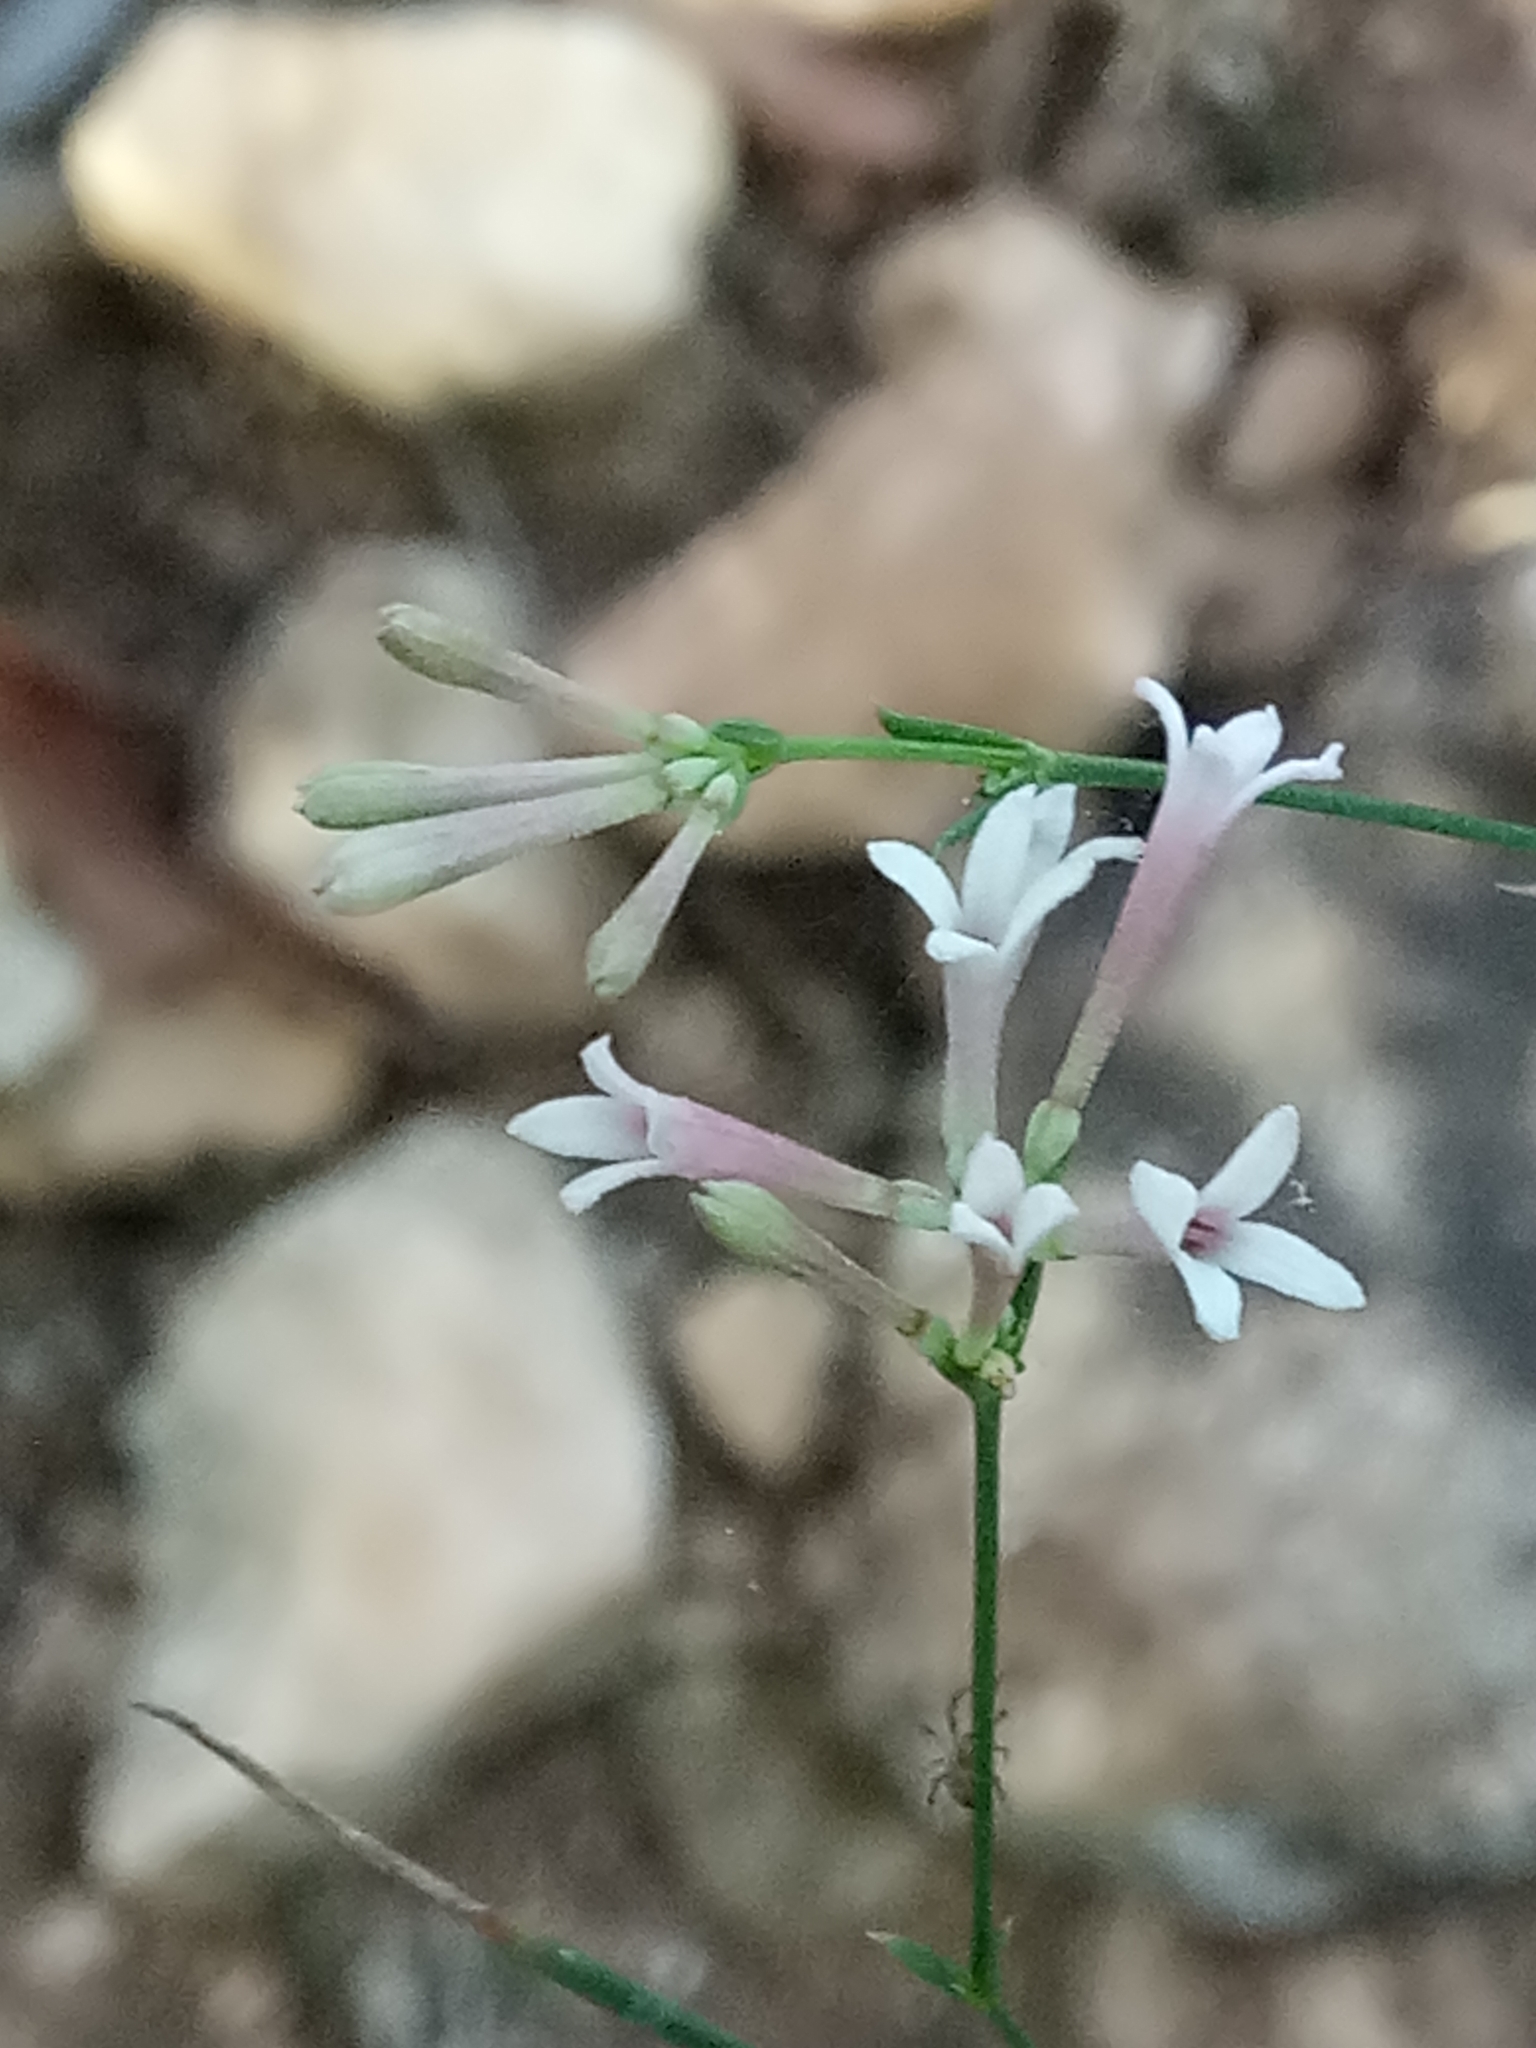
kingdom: Plantae
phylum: Tracheophyta
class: Magnoliopsida
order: Gentianales
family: Rubiaceae
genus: Cynanchica
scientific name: Cynanchica aristata
